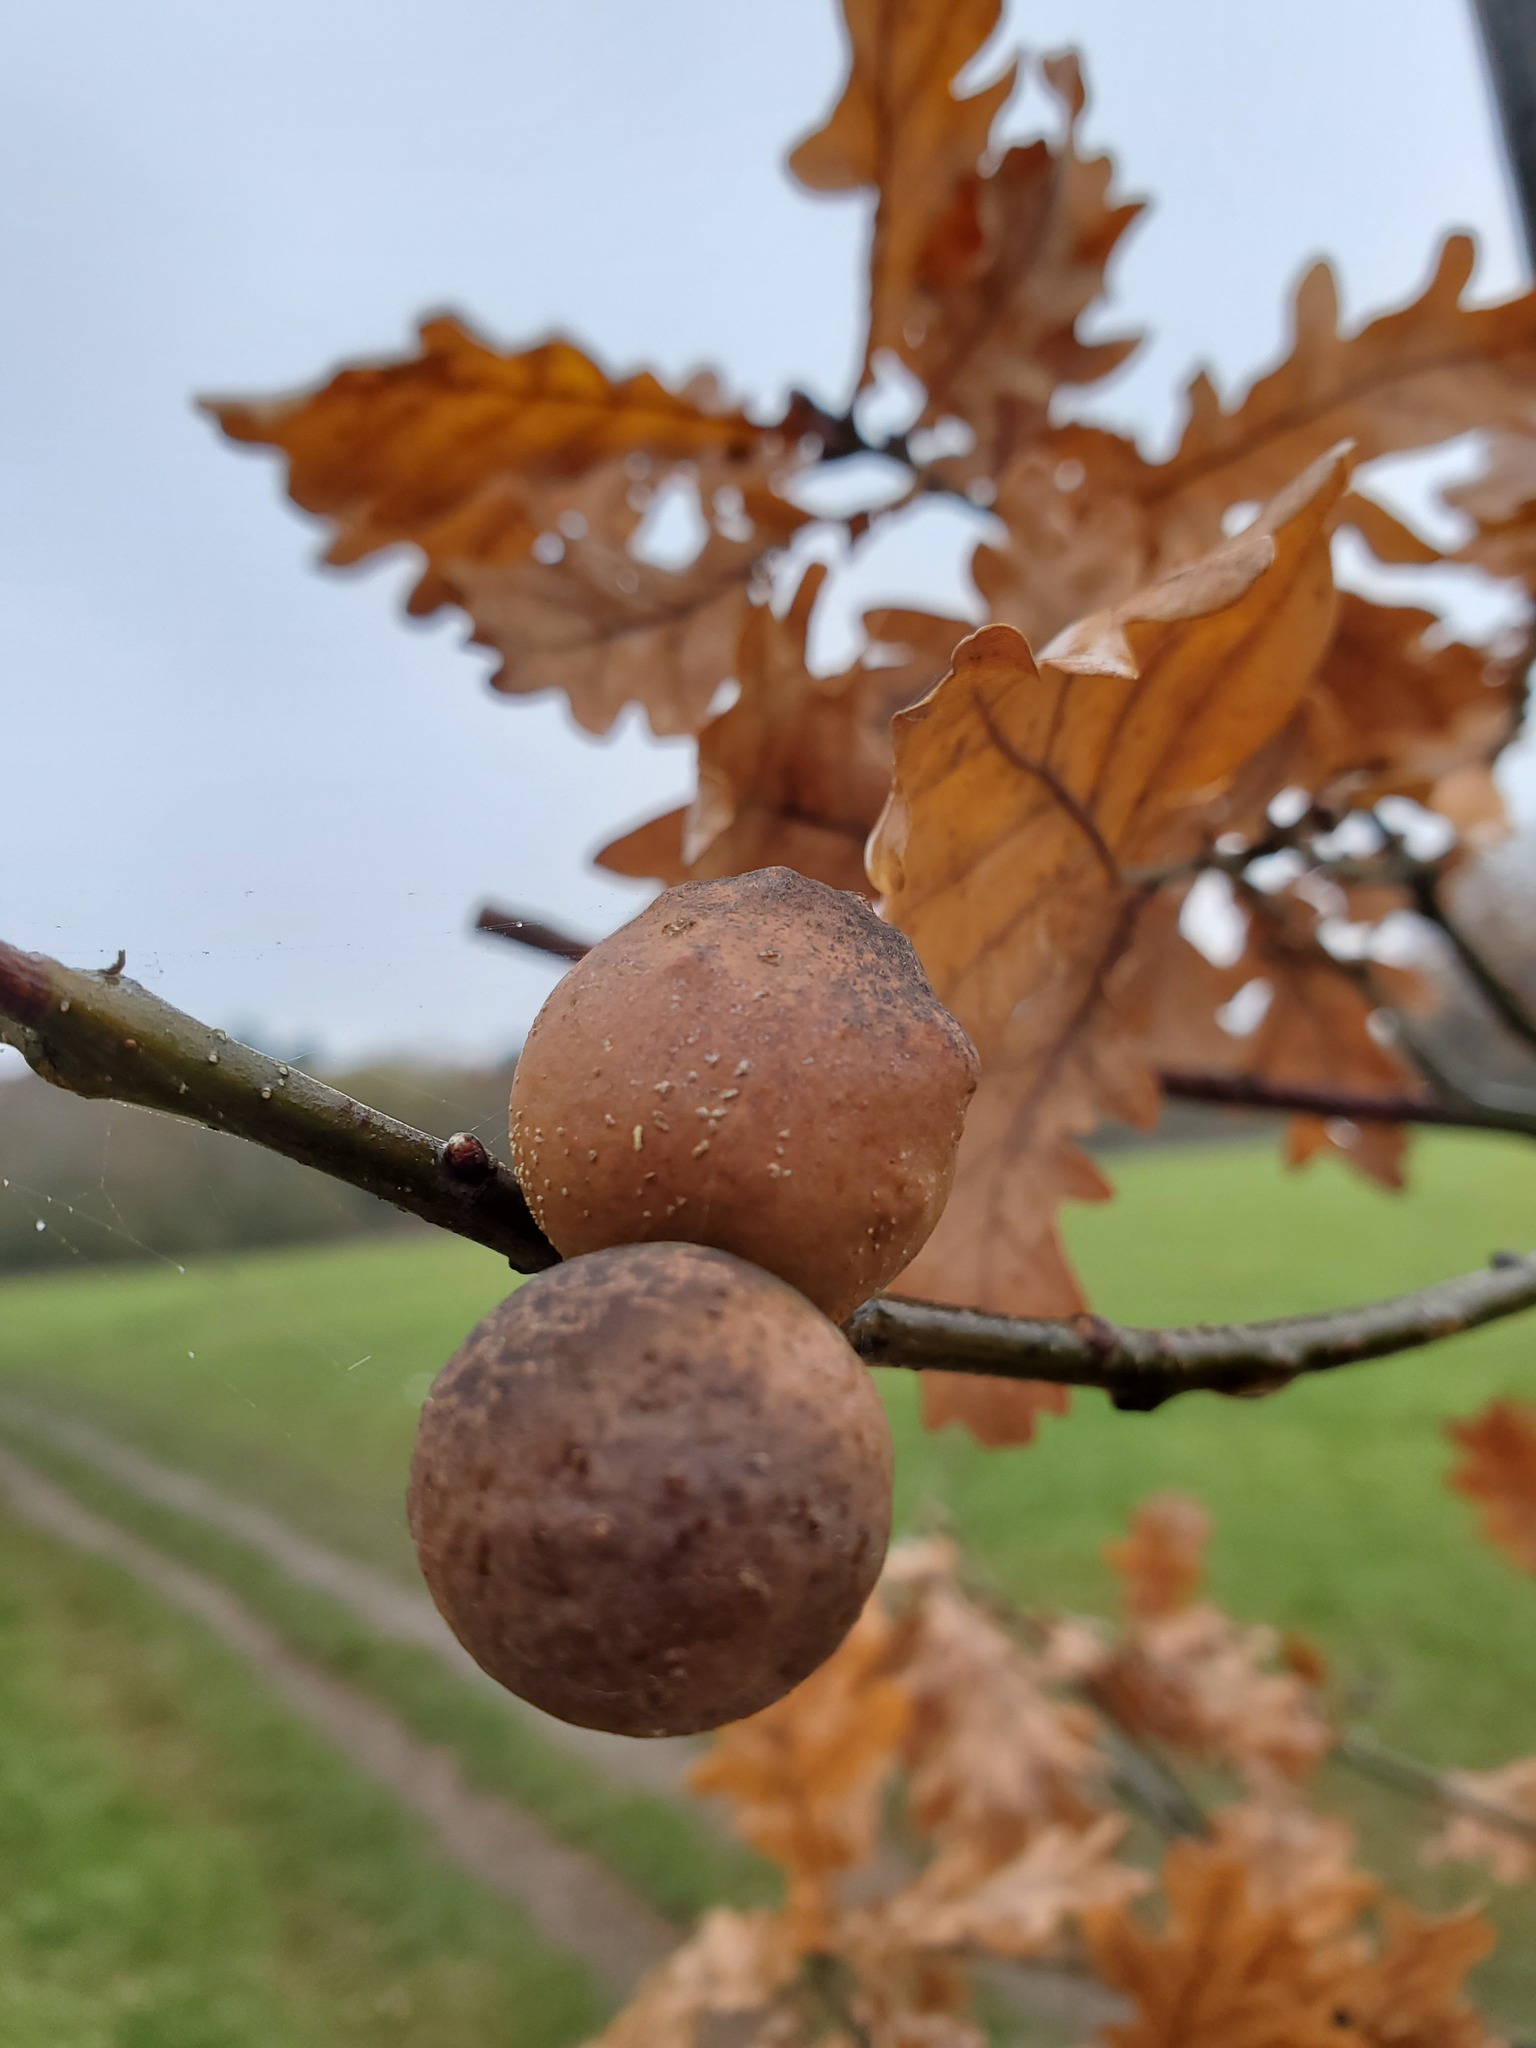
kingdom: Animalia
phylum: Arthropoda
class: Insecta
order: Hymenoptera
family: Cynipidae
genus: Andricus
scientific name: Andricus kollari
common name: Marble gall
